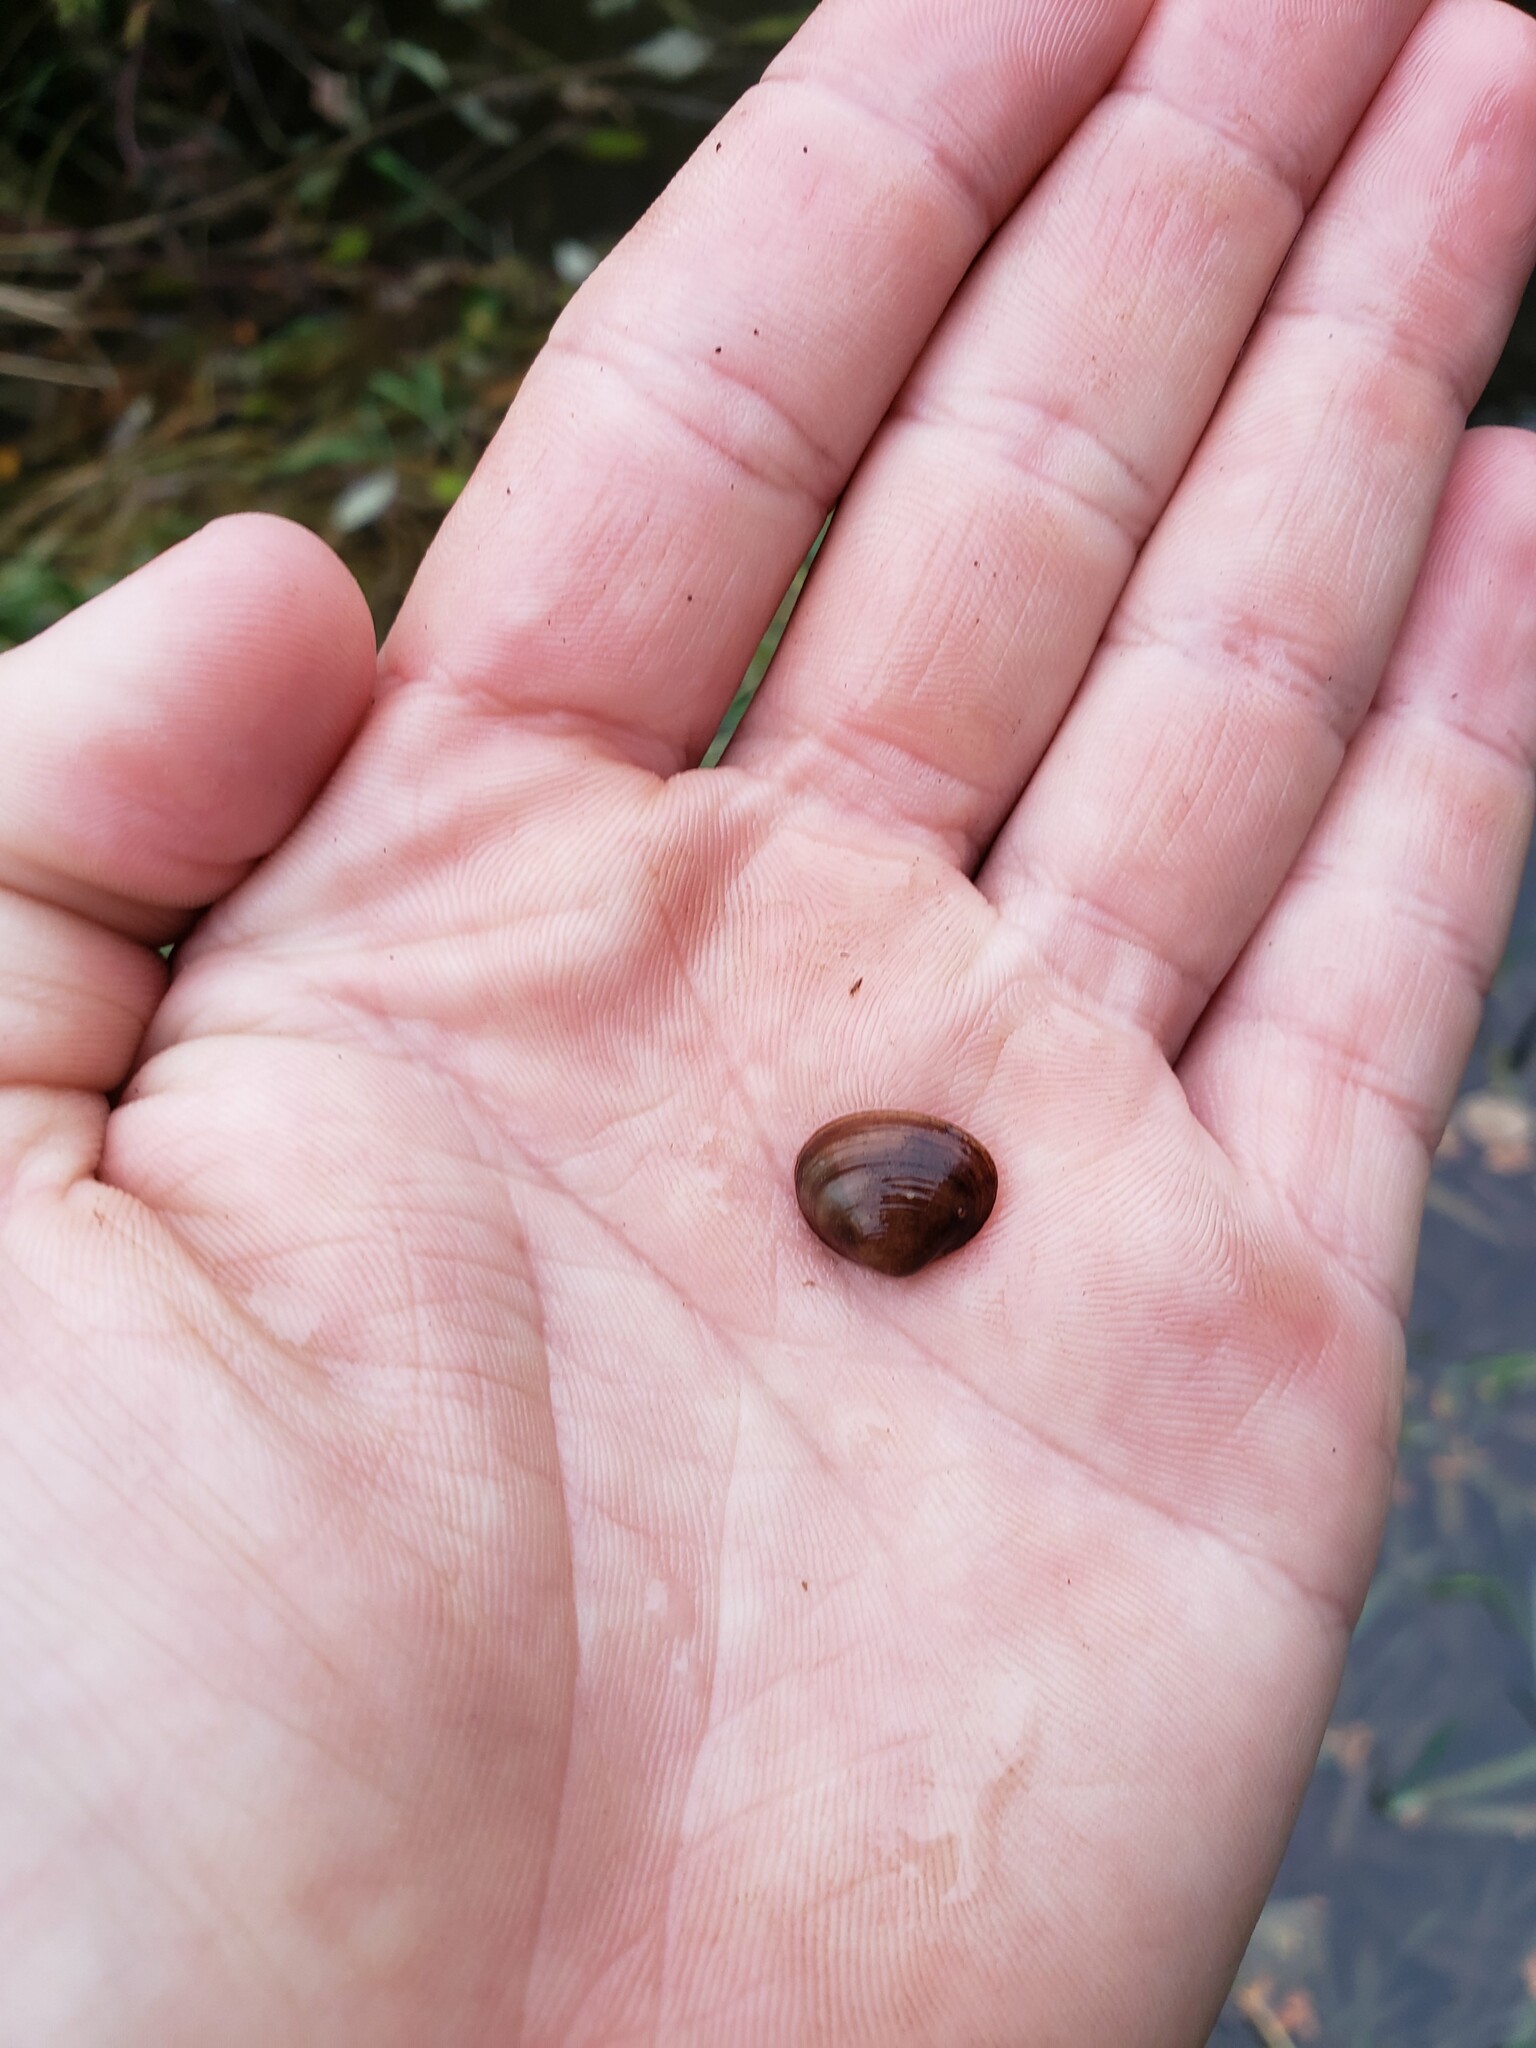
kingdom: Animalia
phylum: Mollusca
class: Bivalvia
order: Sphaeriida
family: Sphaeriidae
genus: Sphaerium
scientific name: Sphaerium simile
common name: Grooved fingernailclam
